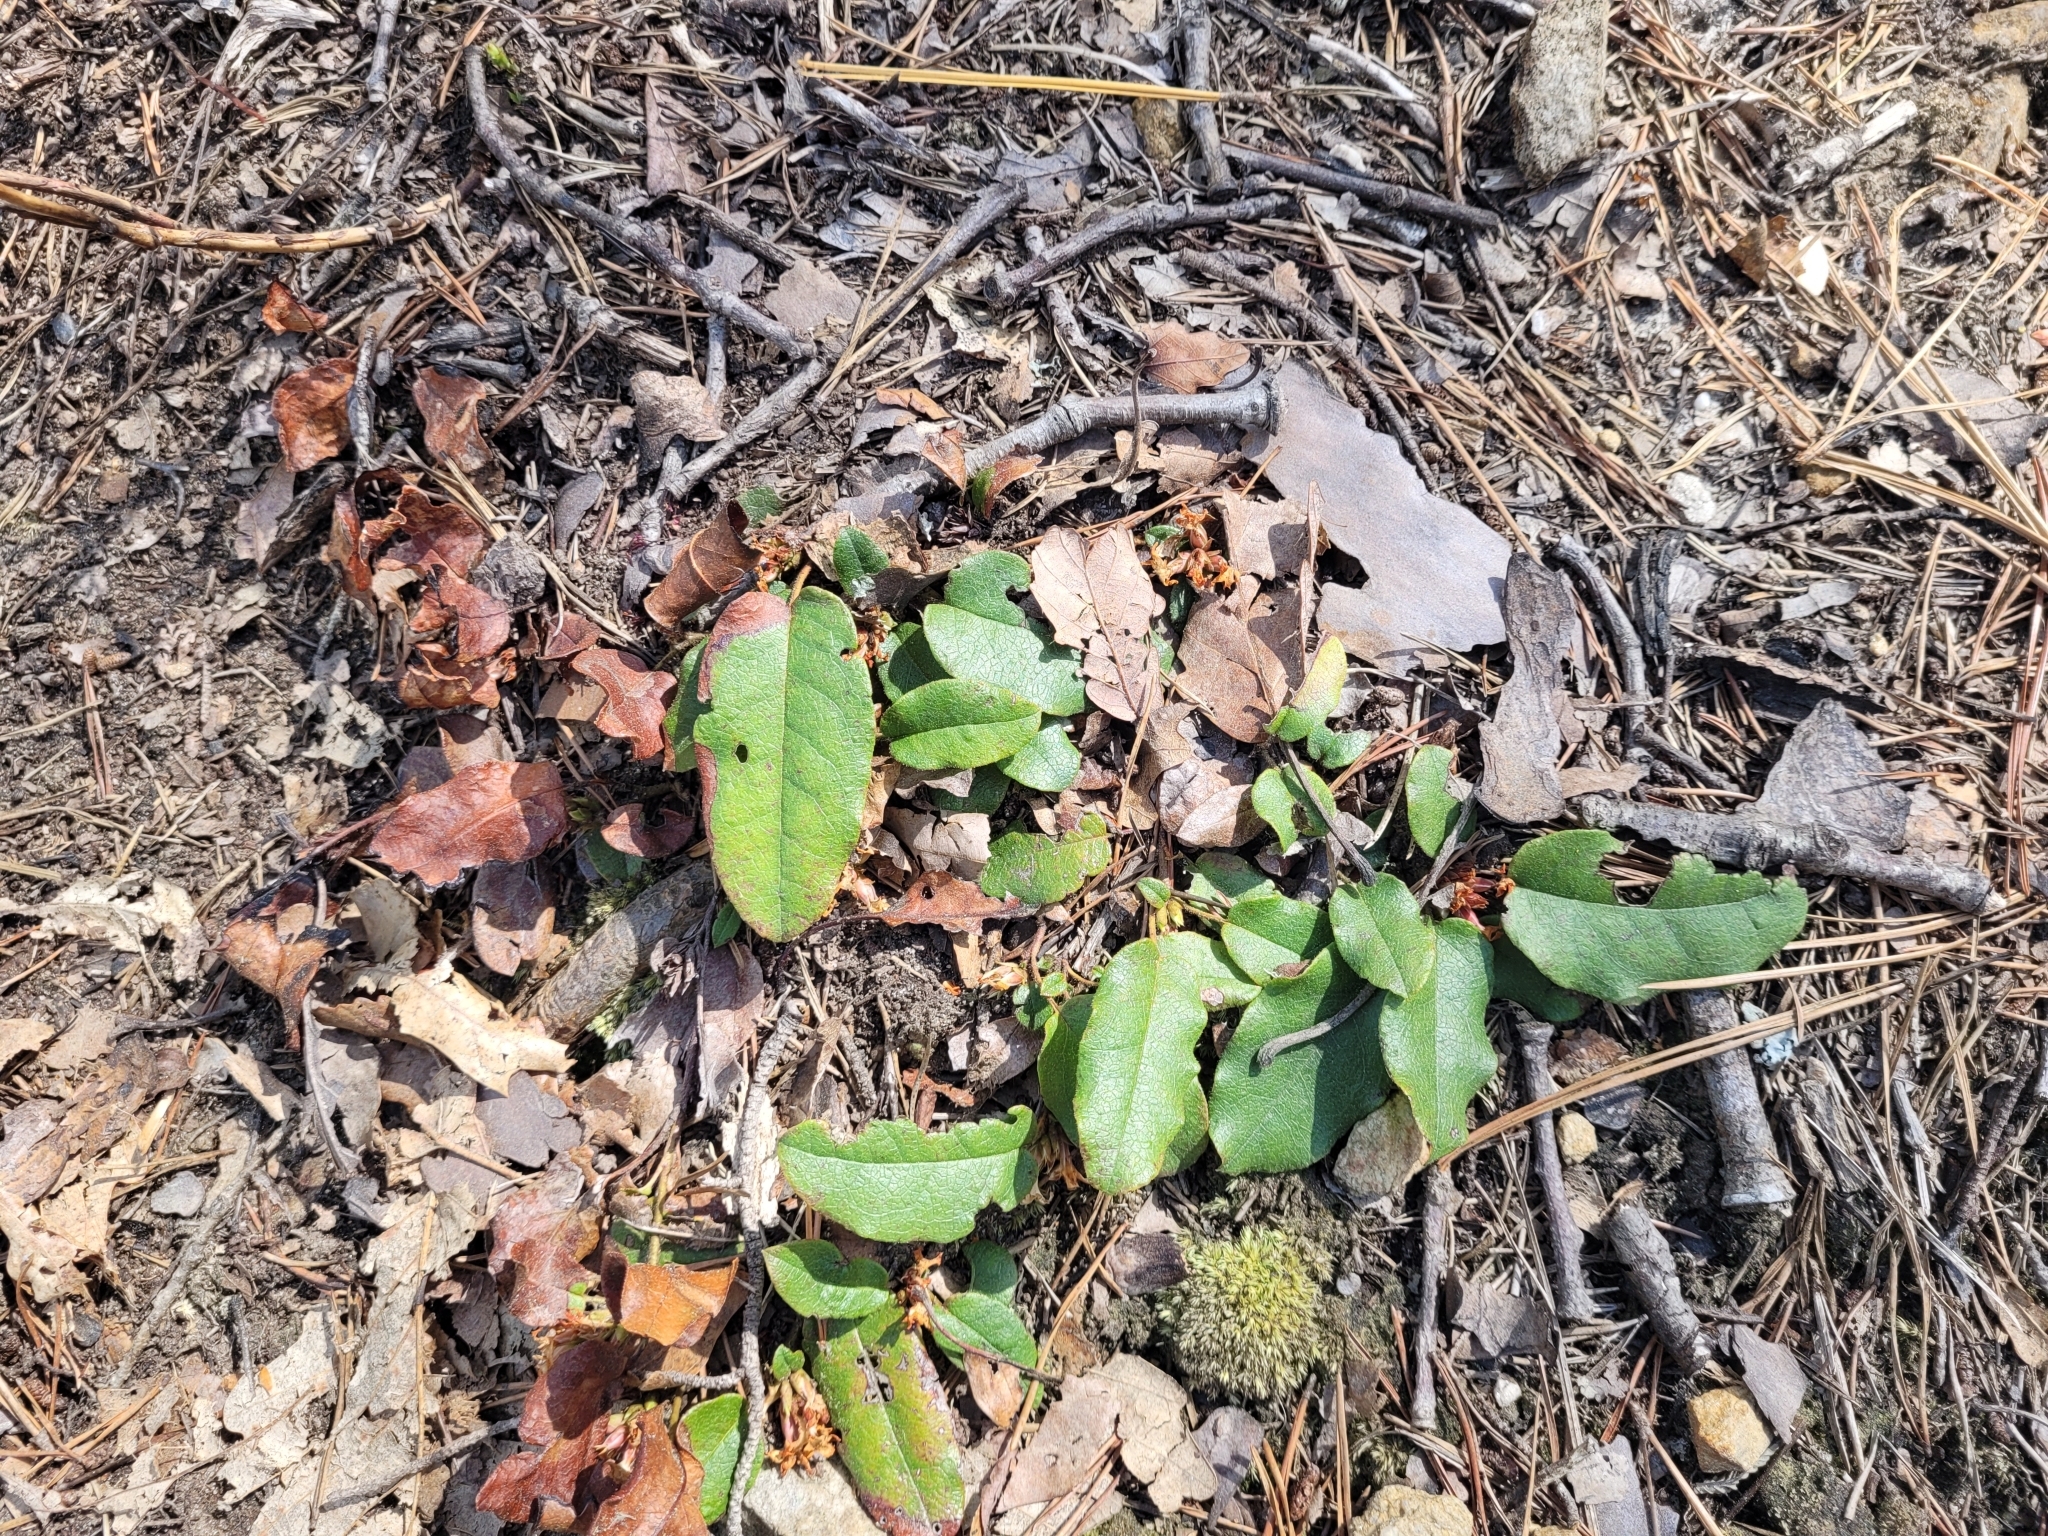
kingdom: Plantae
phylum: Tracheophyta
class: Magnoliopsida
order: Ericales
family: Ericaceae
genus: Epigaea
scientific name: Epigaea repens
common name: Gravelroot
